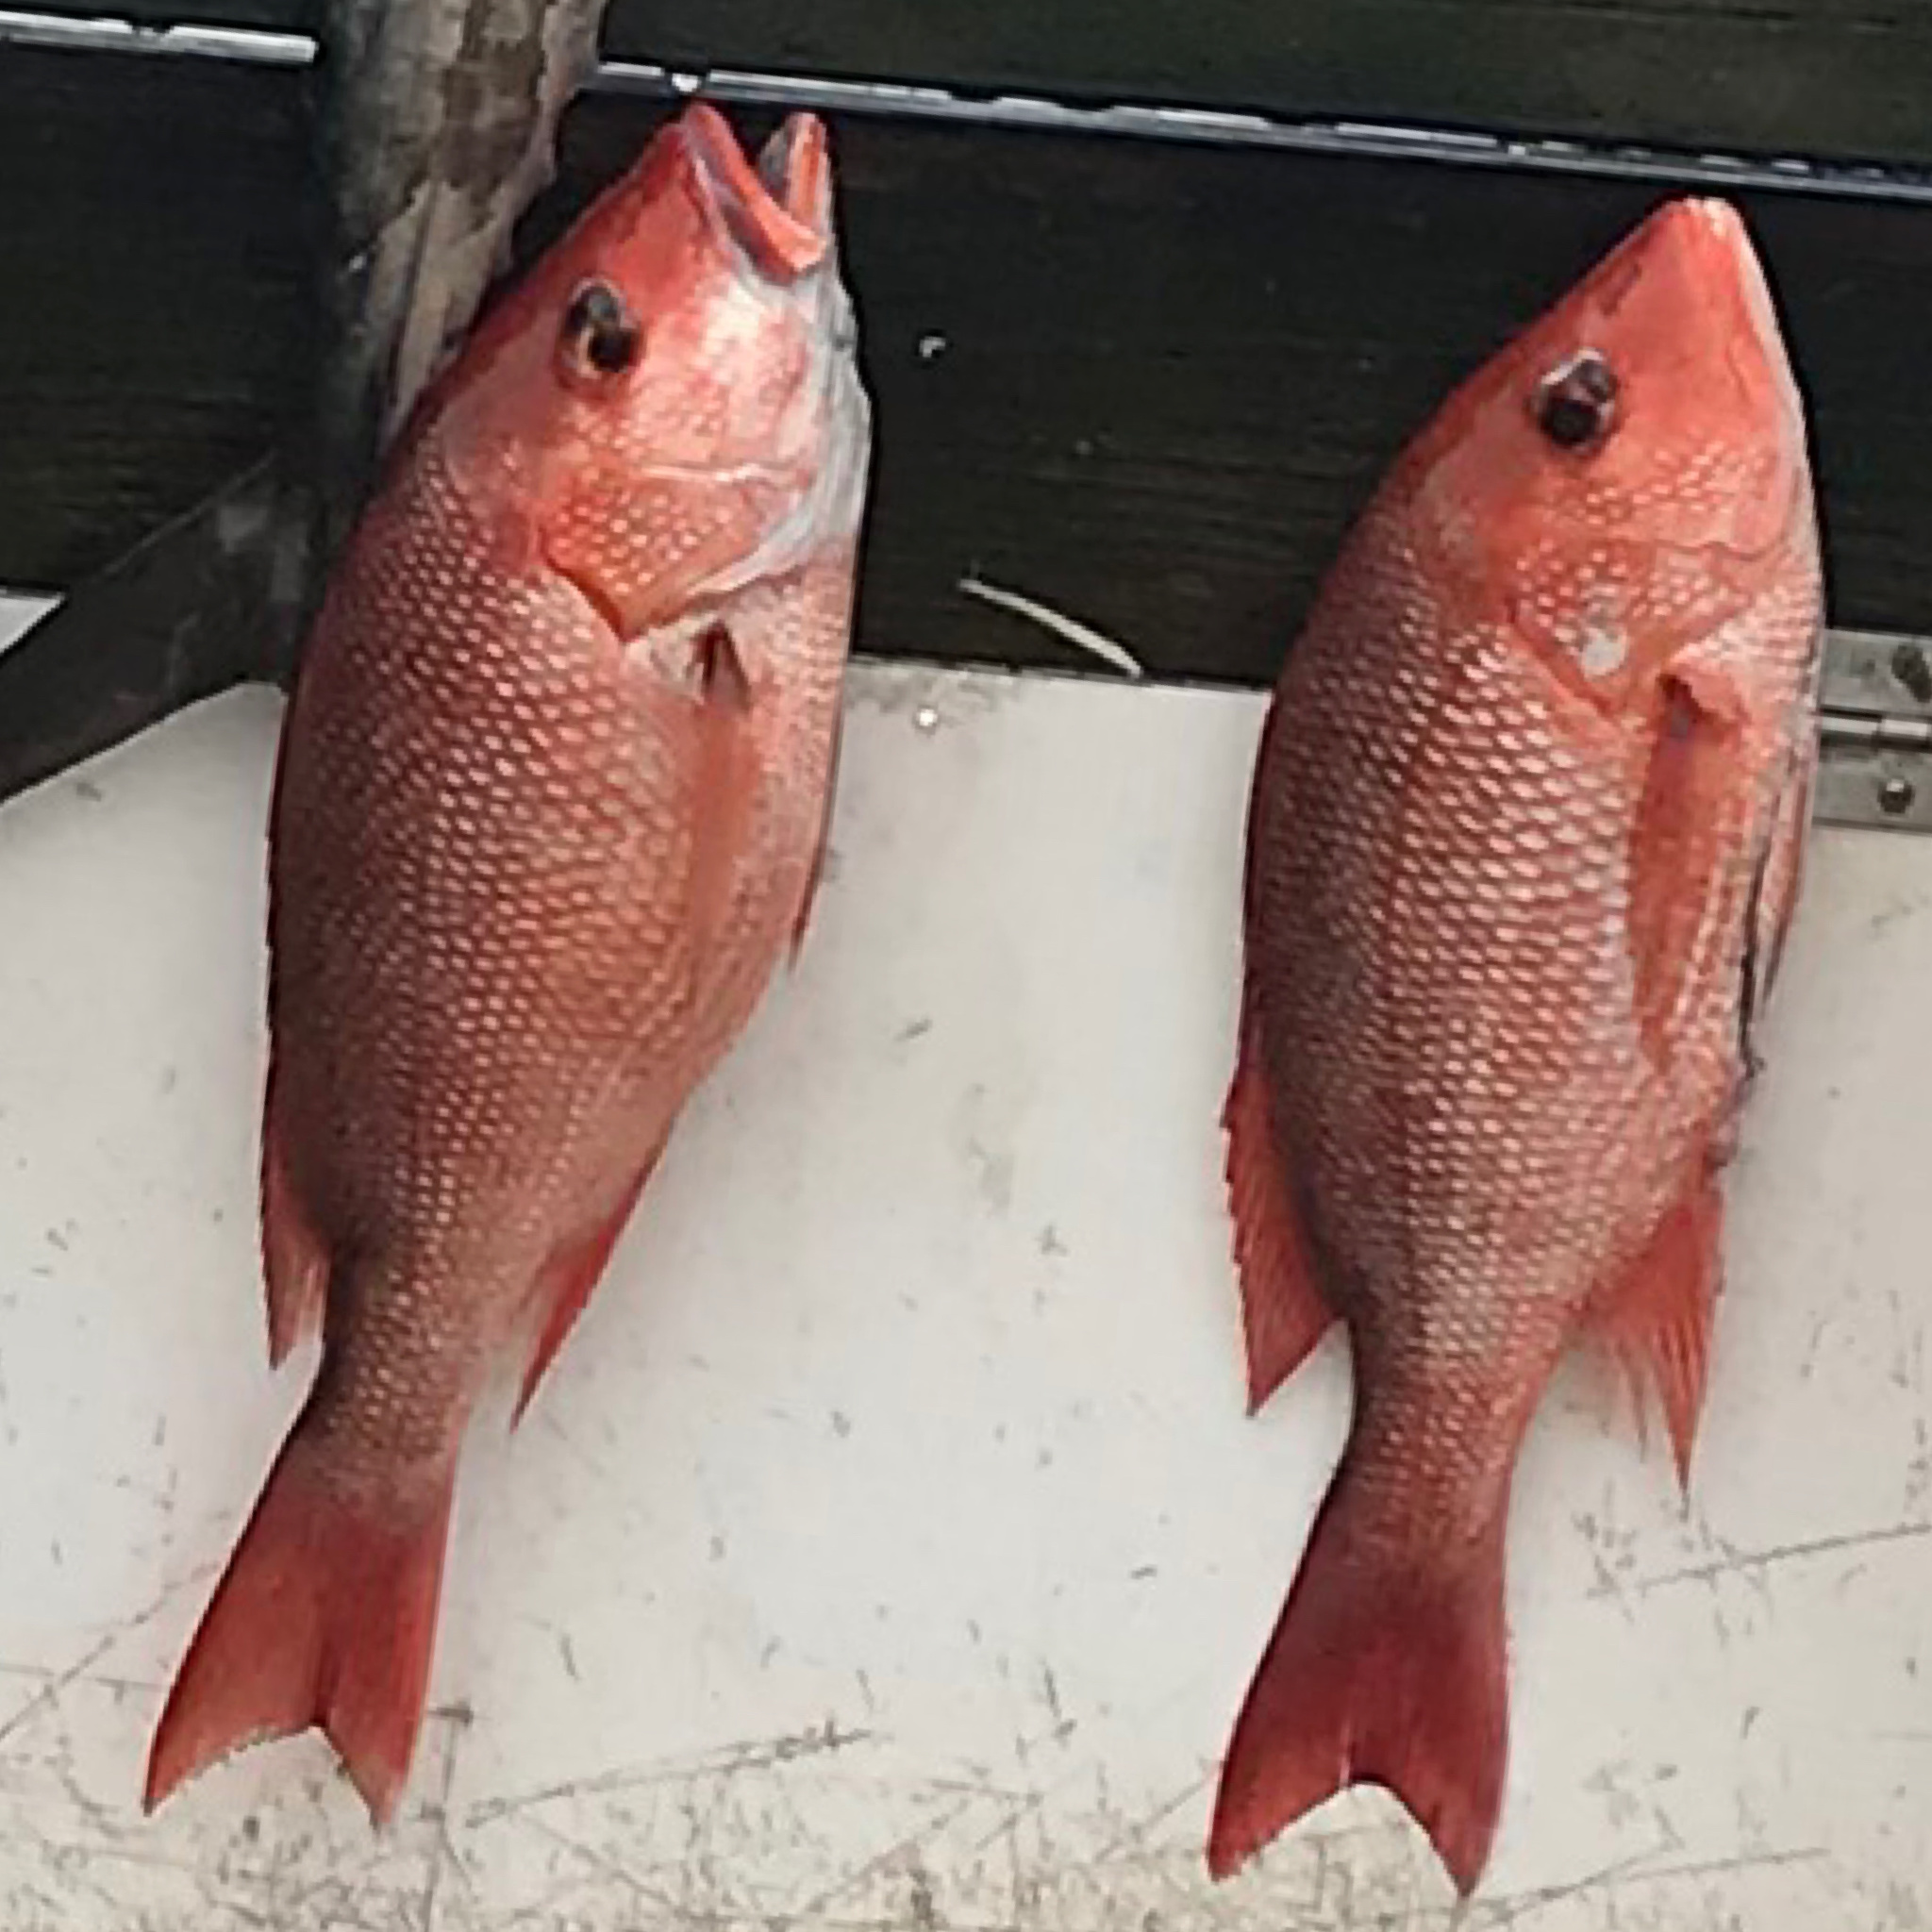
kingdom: Animalia
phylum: Chordata
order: Perciformes
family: Lutjanidae
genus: Lutjanus
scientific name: Lutjanus campechanus
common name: Red snapper
